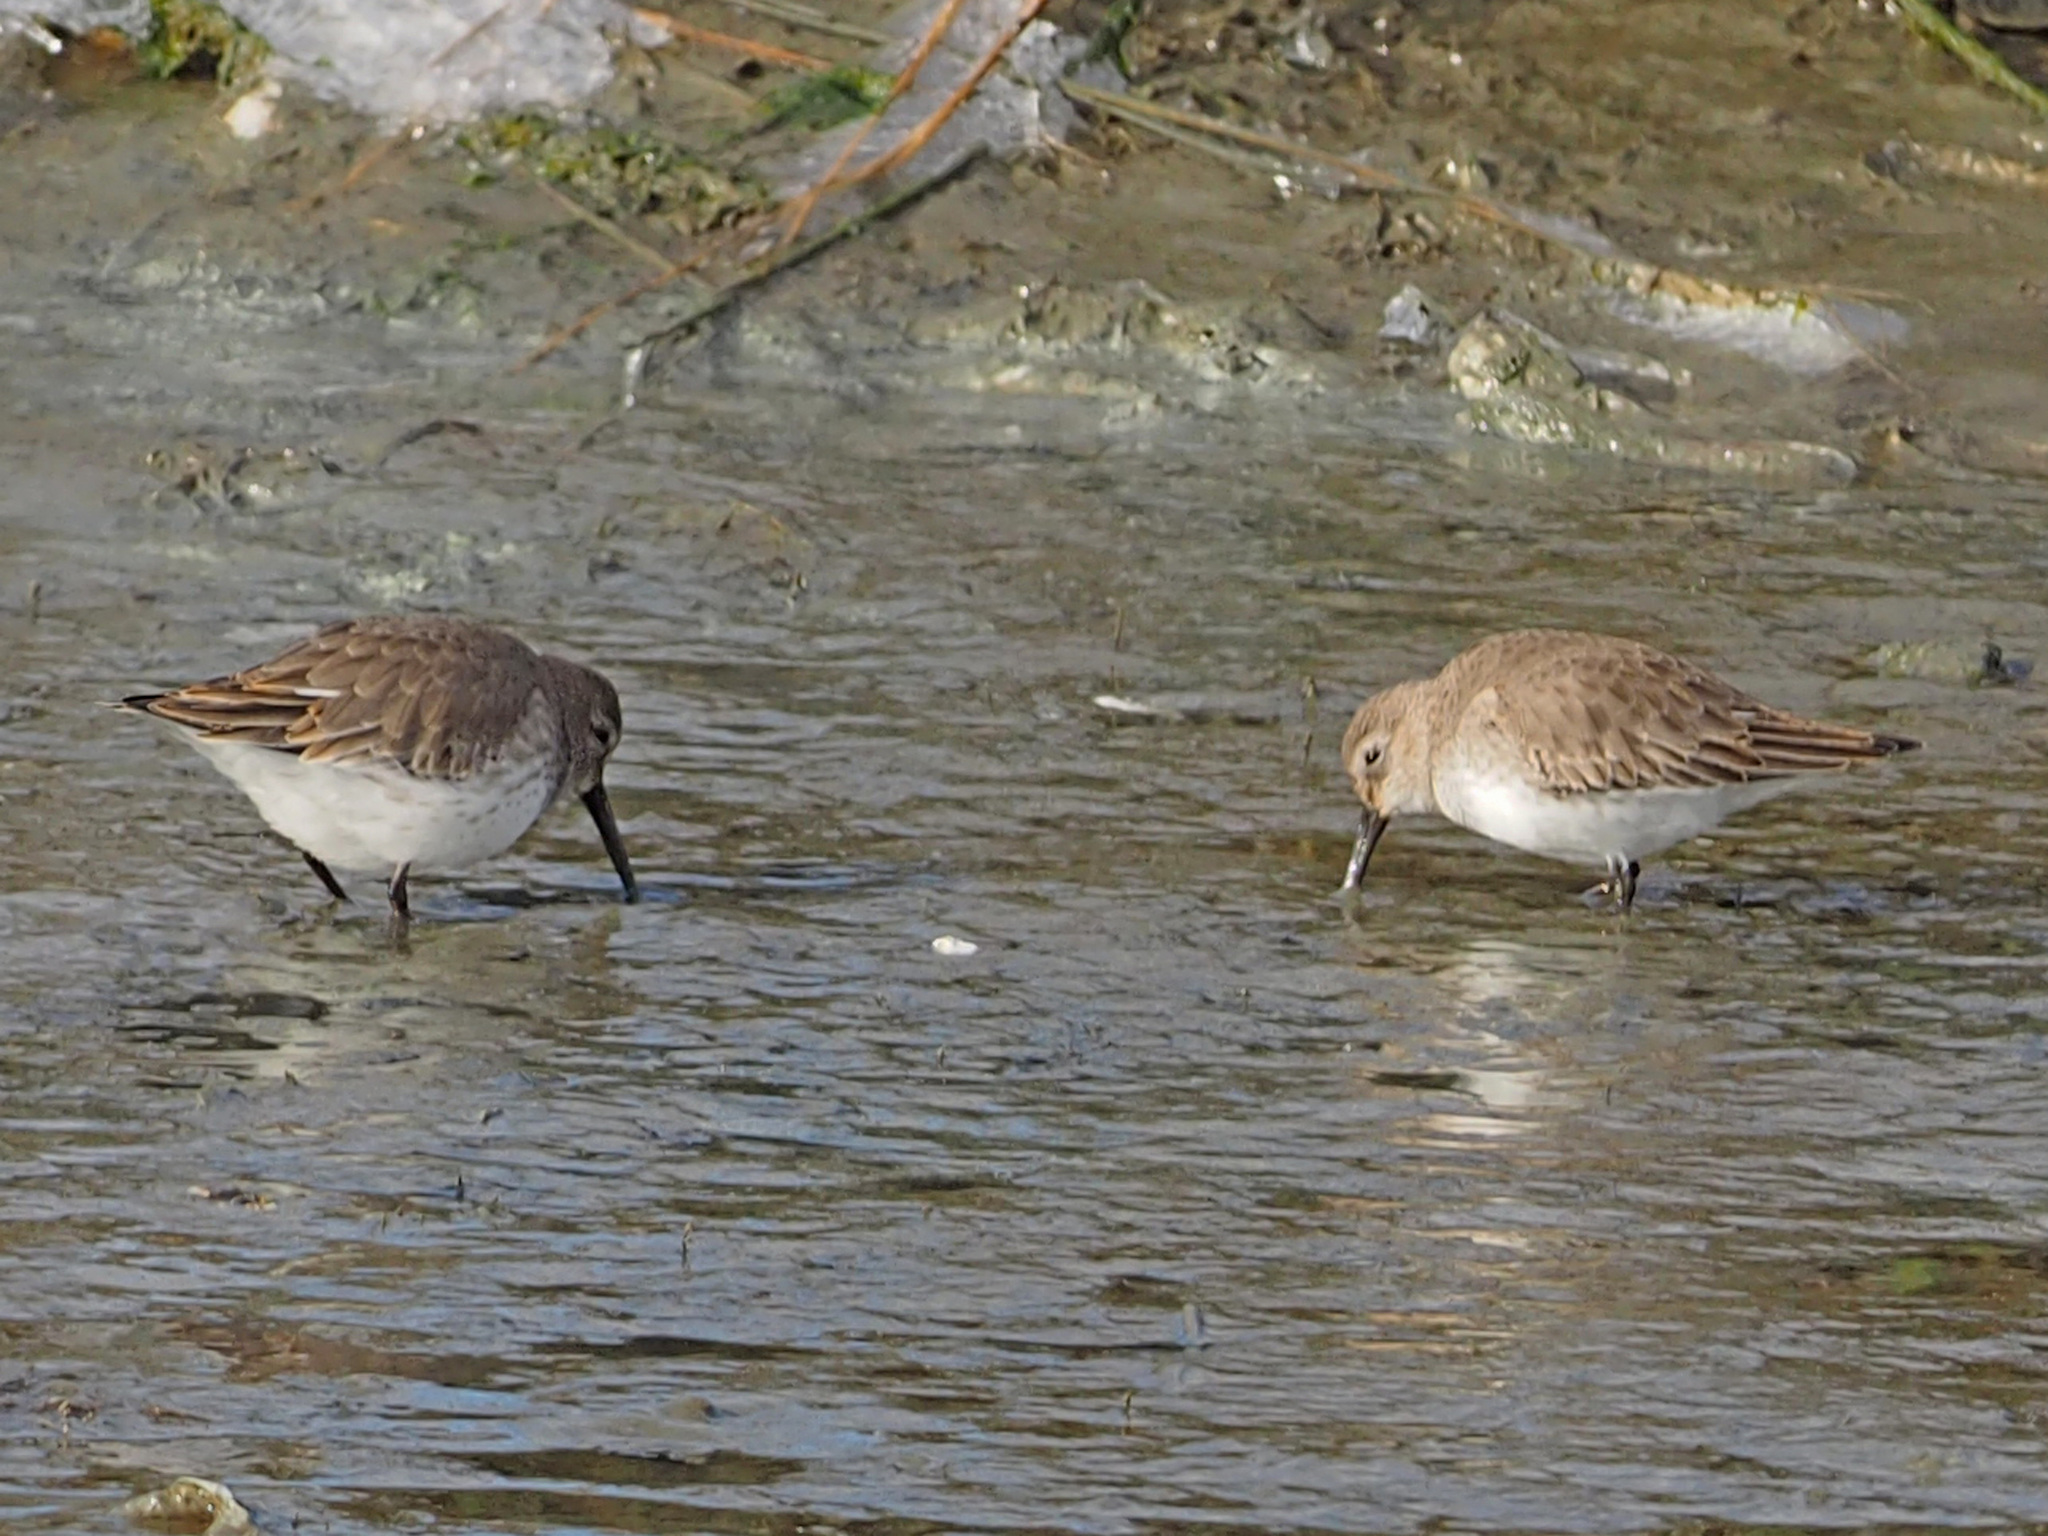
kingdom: Animalia
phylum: Chordata
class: Aves
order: Charadriiformes
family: Scolopacidae
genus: Calidris
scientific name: Calidris alpina
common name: Dunlin
